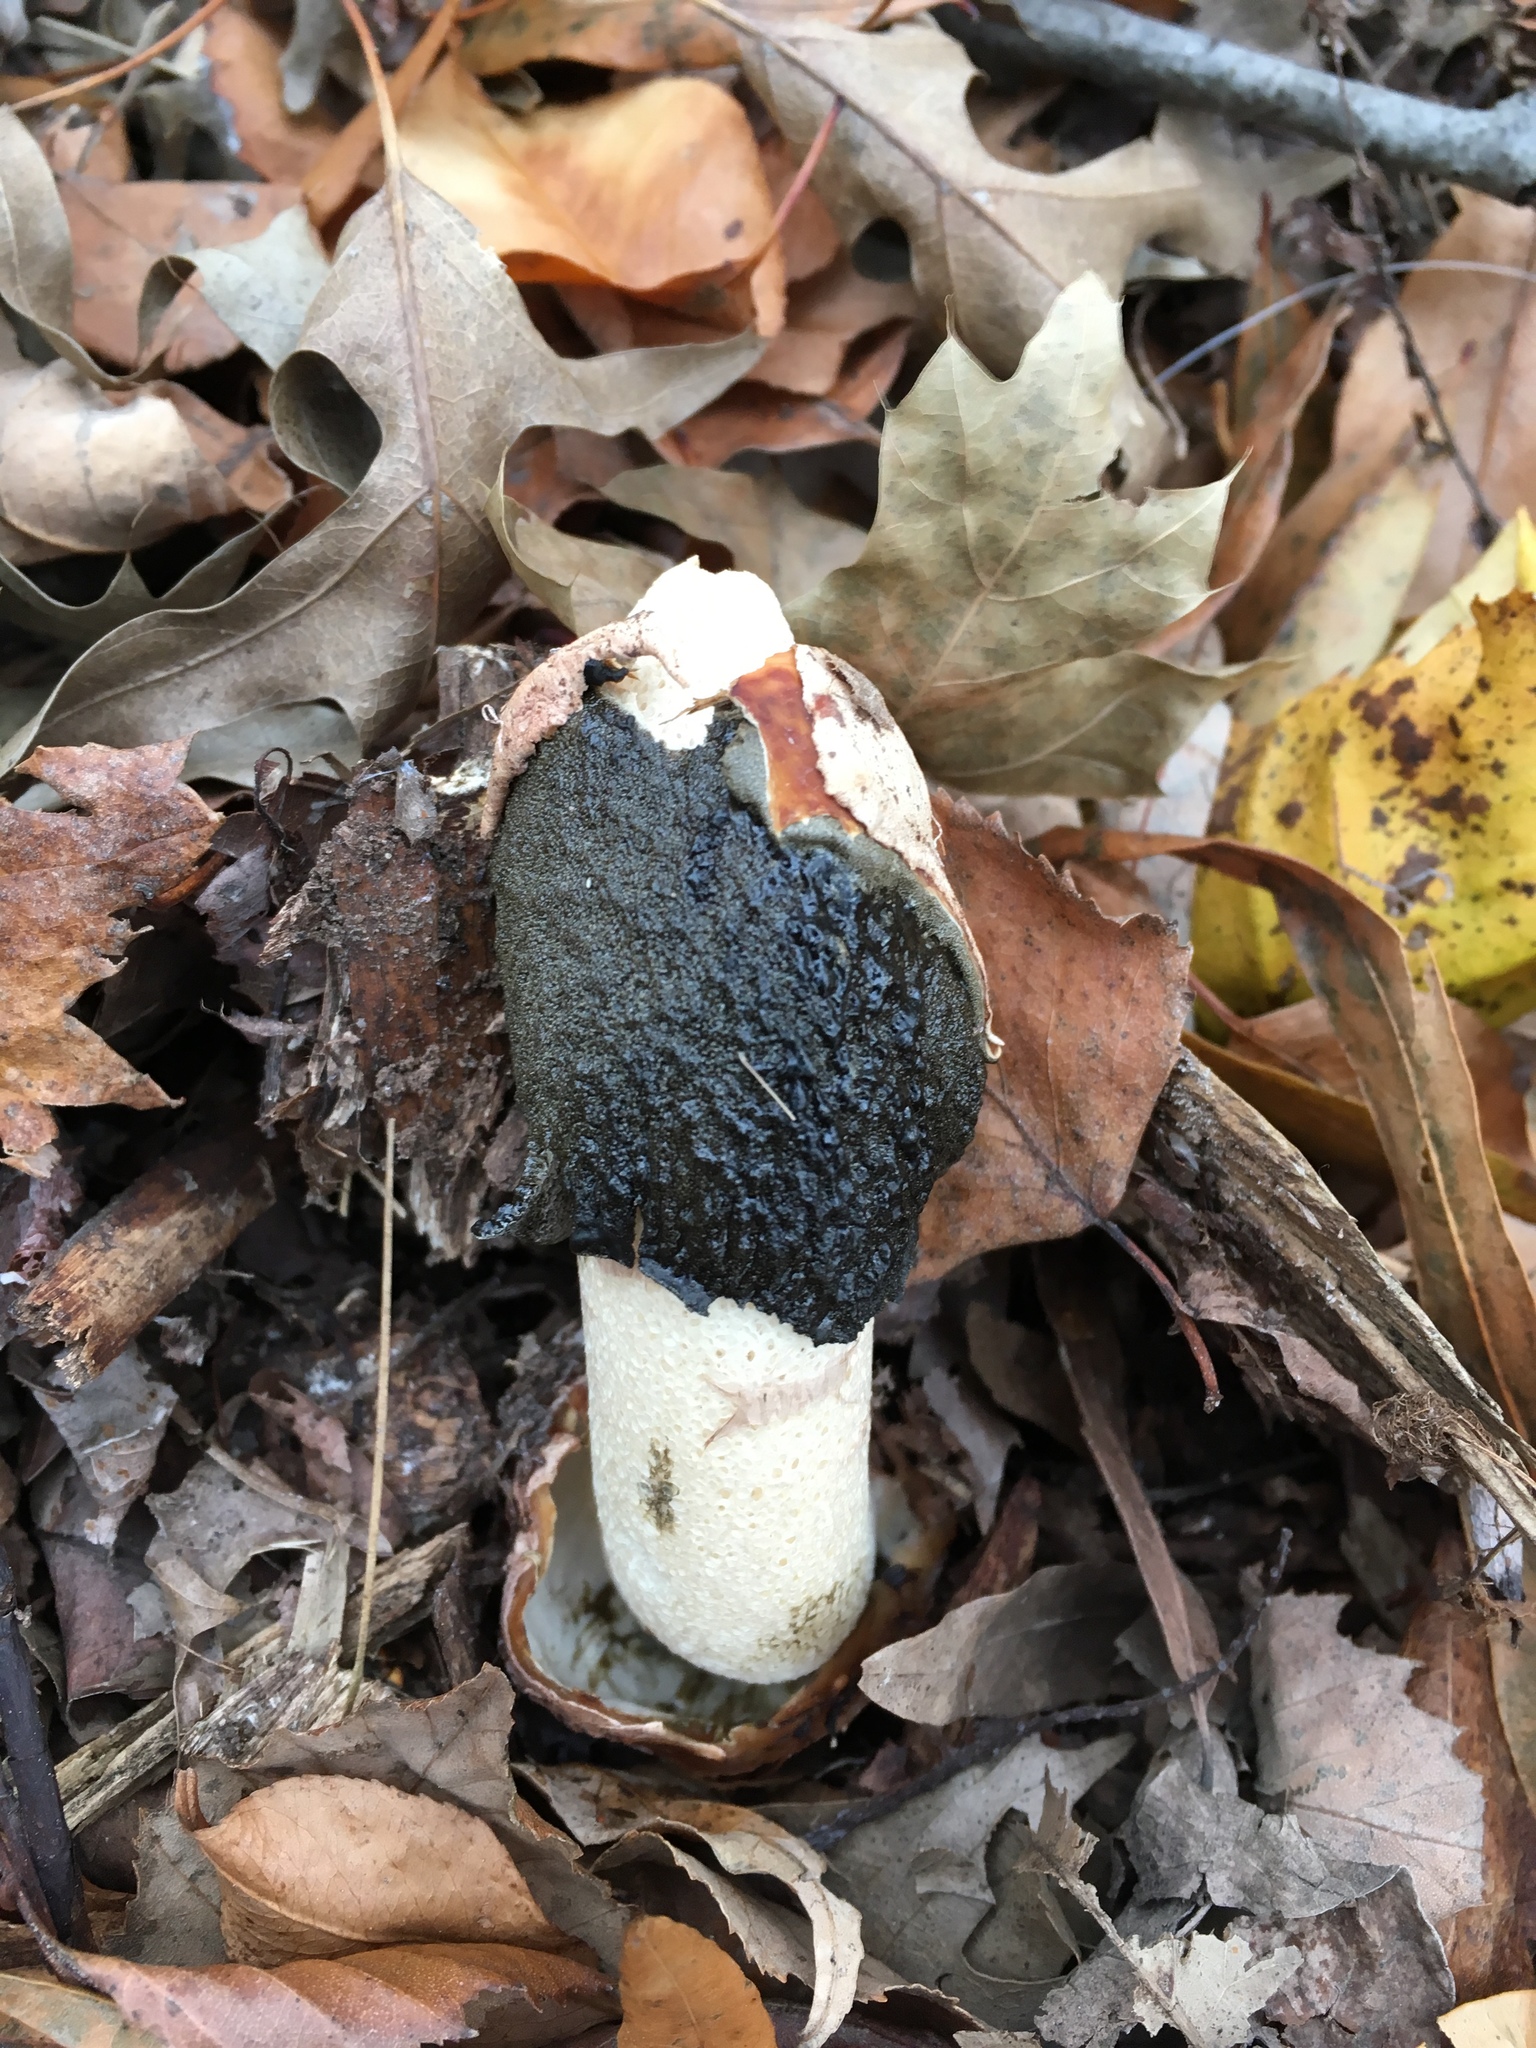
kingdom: Fungi
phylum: Basidiomycota
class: Agaricomycetes
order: Phallales
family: Phallaceae
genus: Phallus
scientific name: Phallus ravenelii
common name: Ravenel's stinkhorn
